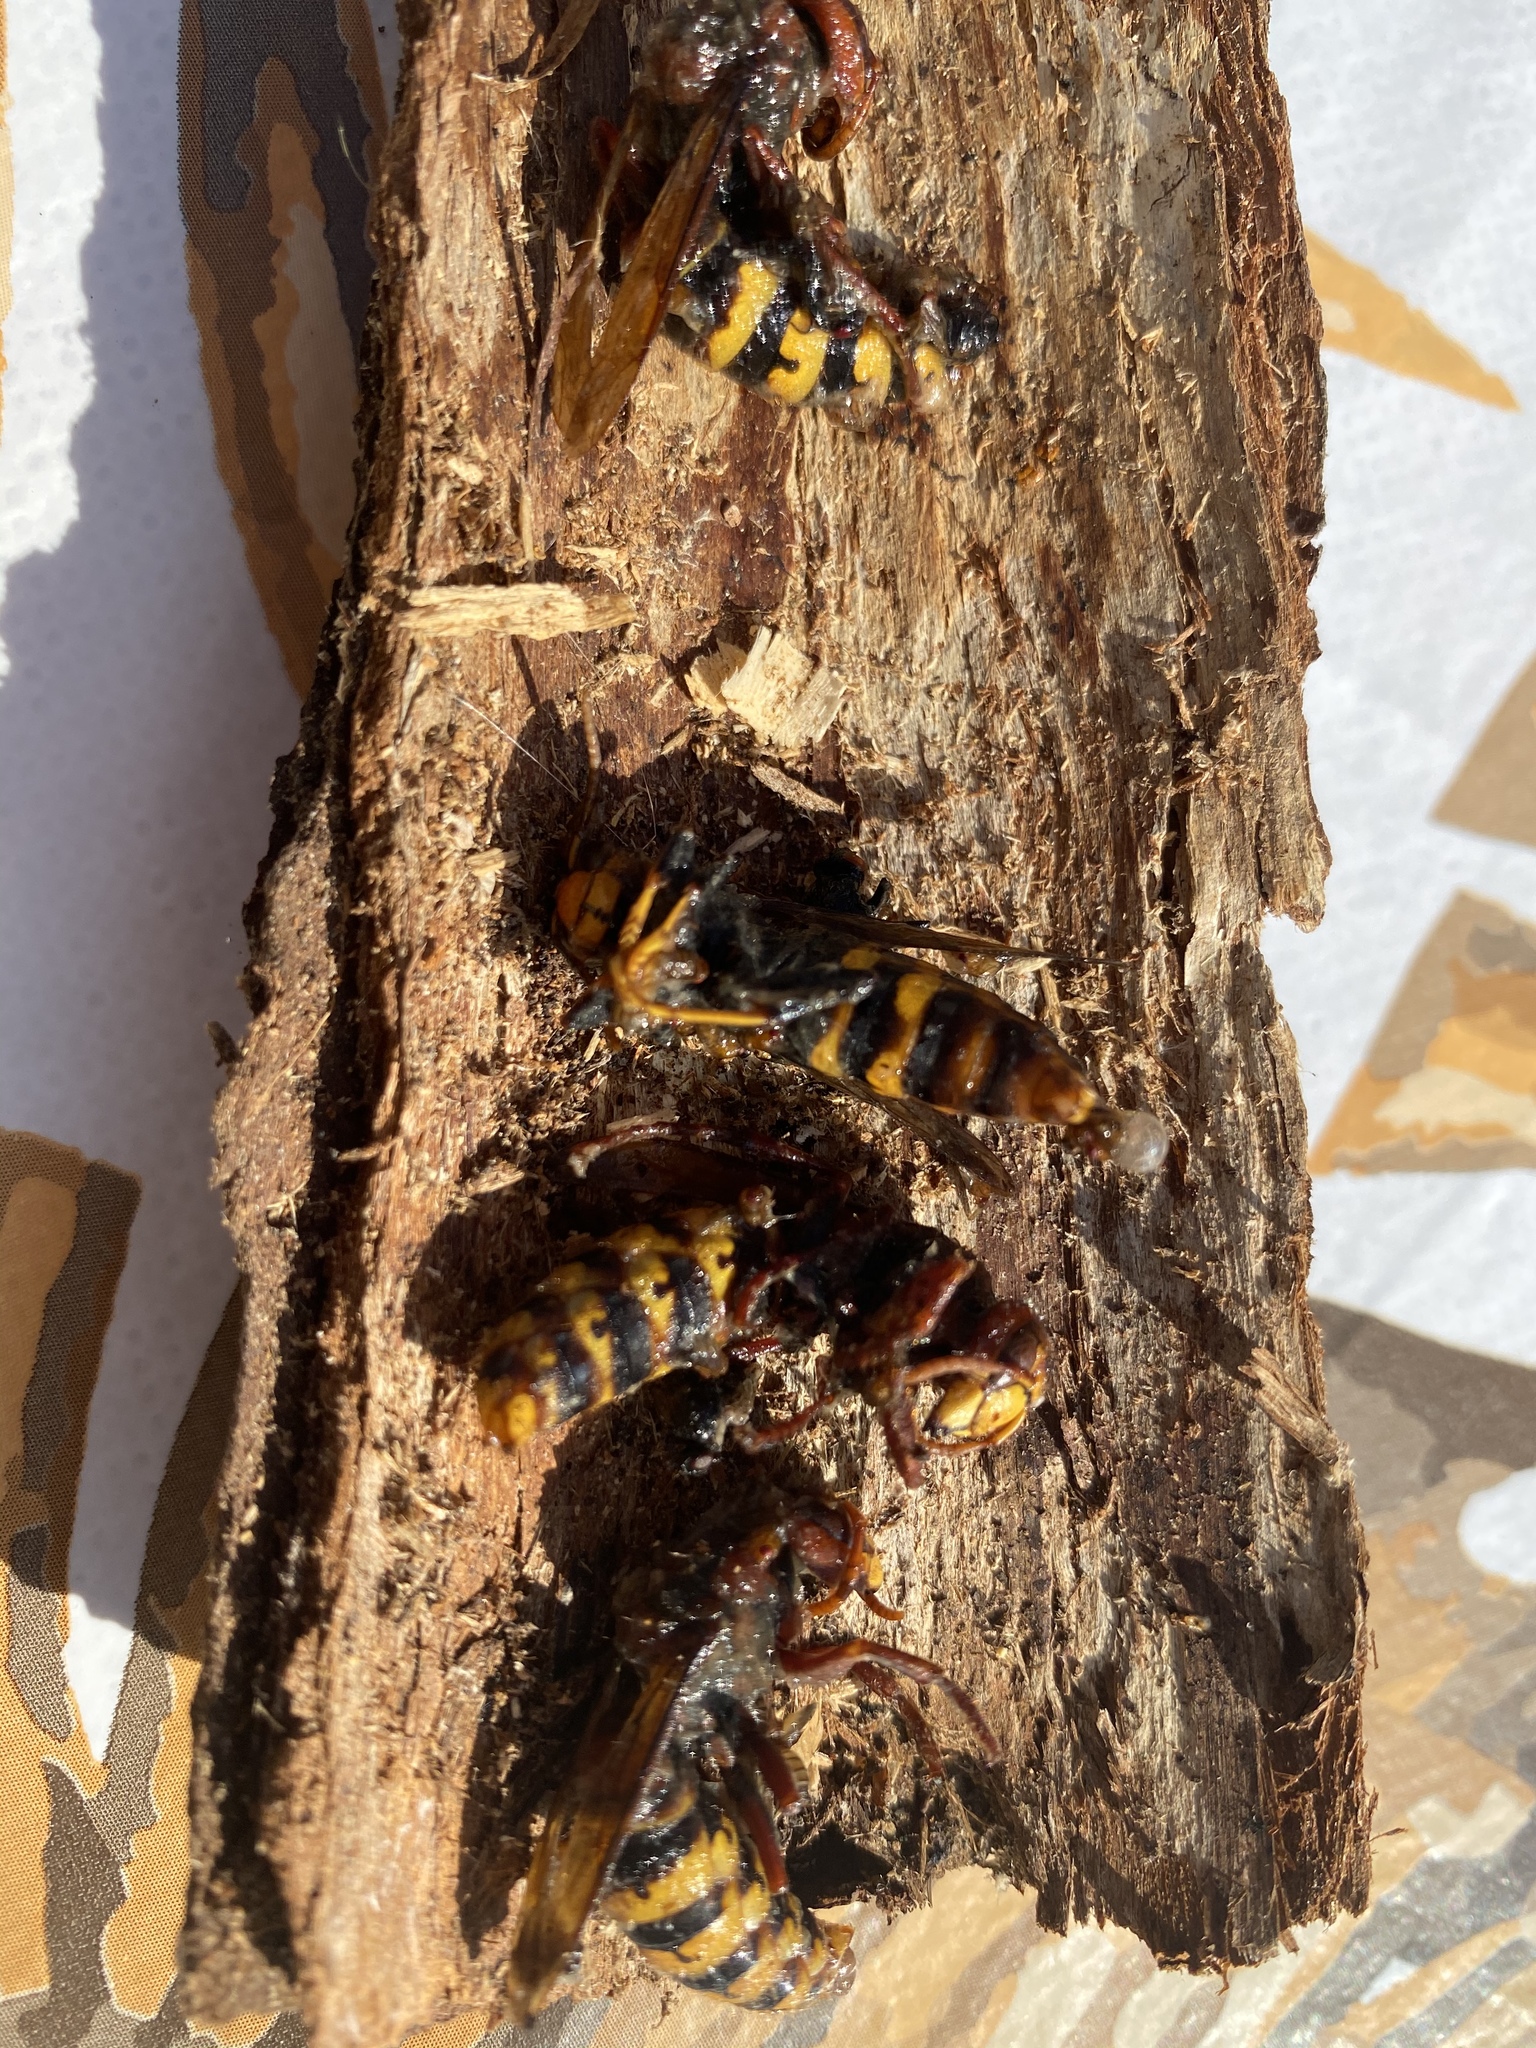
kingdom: Animalia
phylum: Arthropoda
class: Insecta
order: Hymenoptera
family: Vespidae
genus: Vespa
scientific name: Vespa crabro
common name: Hornet
